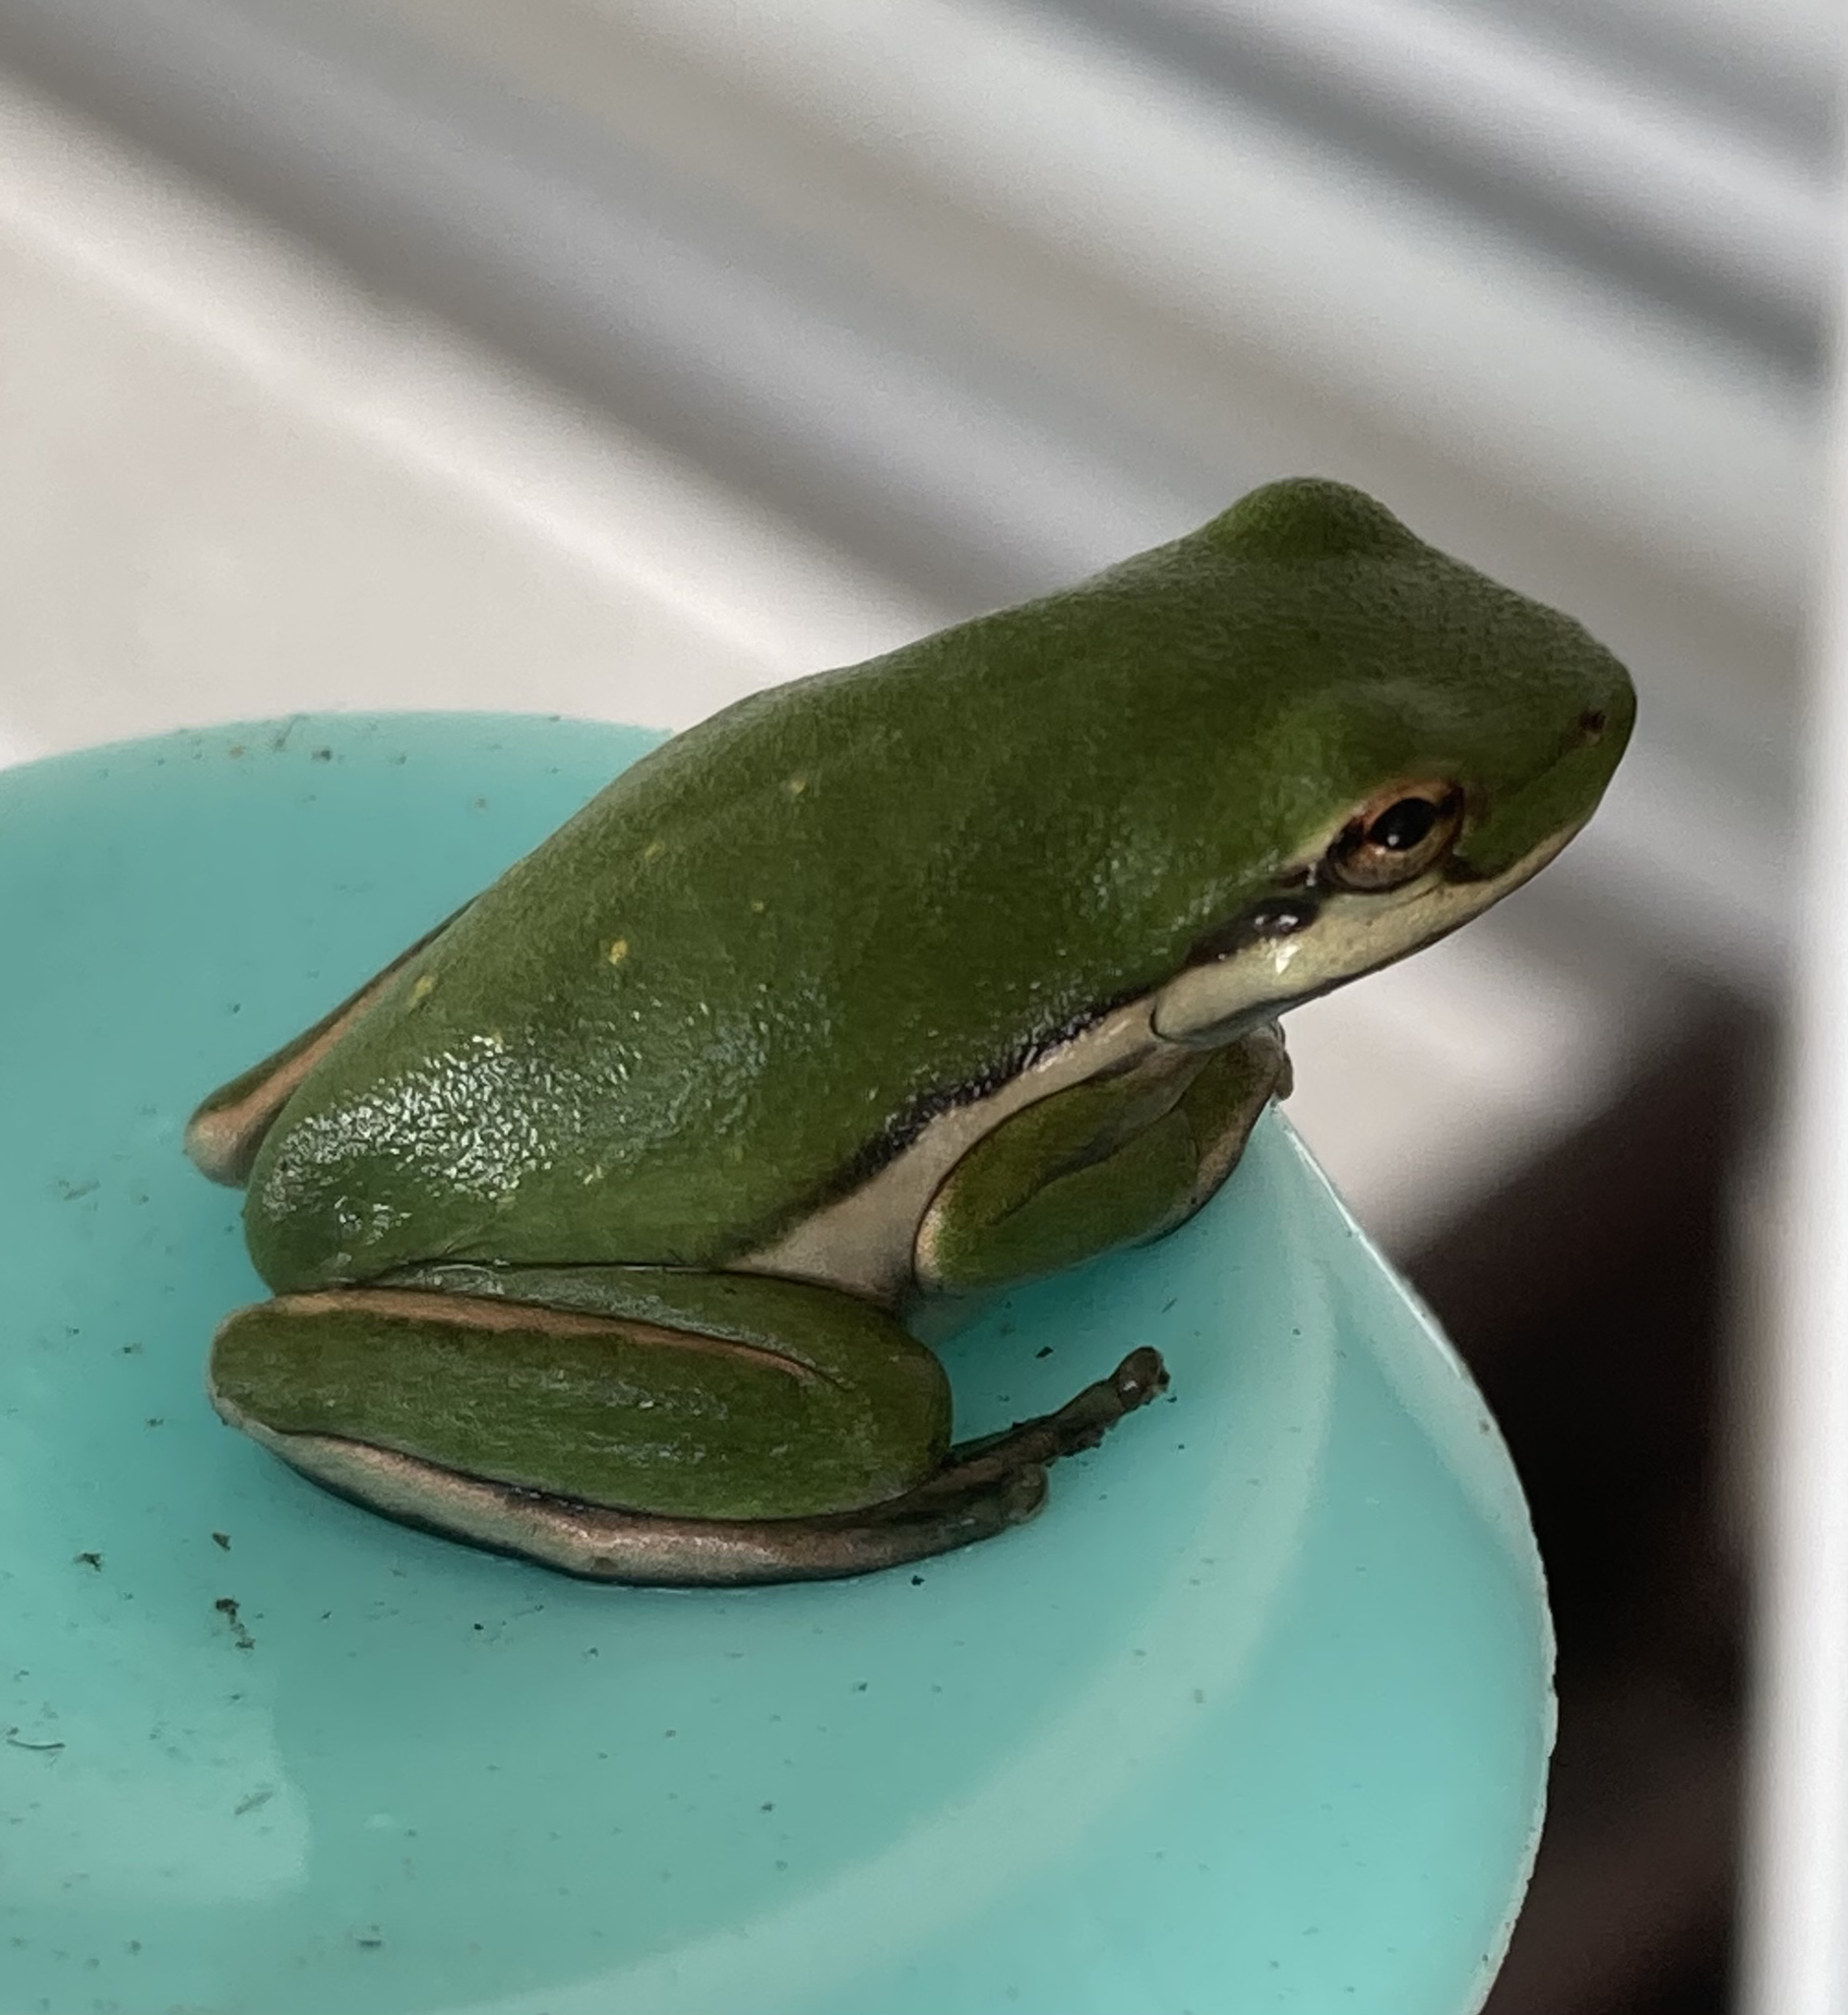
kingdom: Animalia
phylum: Chordata
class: Amphibia
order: Anura
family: Hylidae
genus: Dryophytes
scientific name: Dryophytes cinereus
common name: Green treefrog
